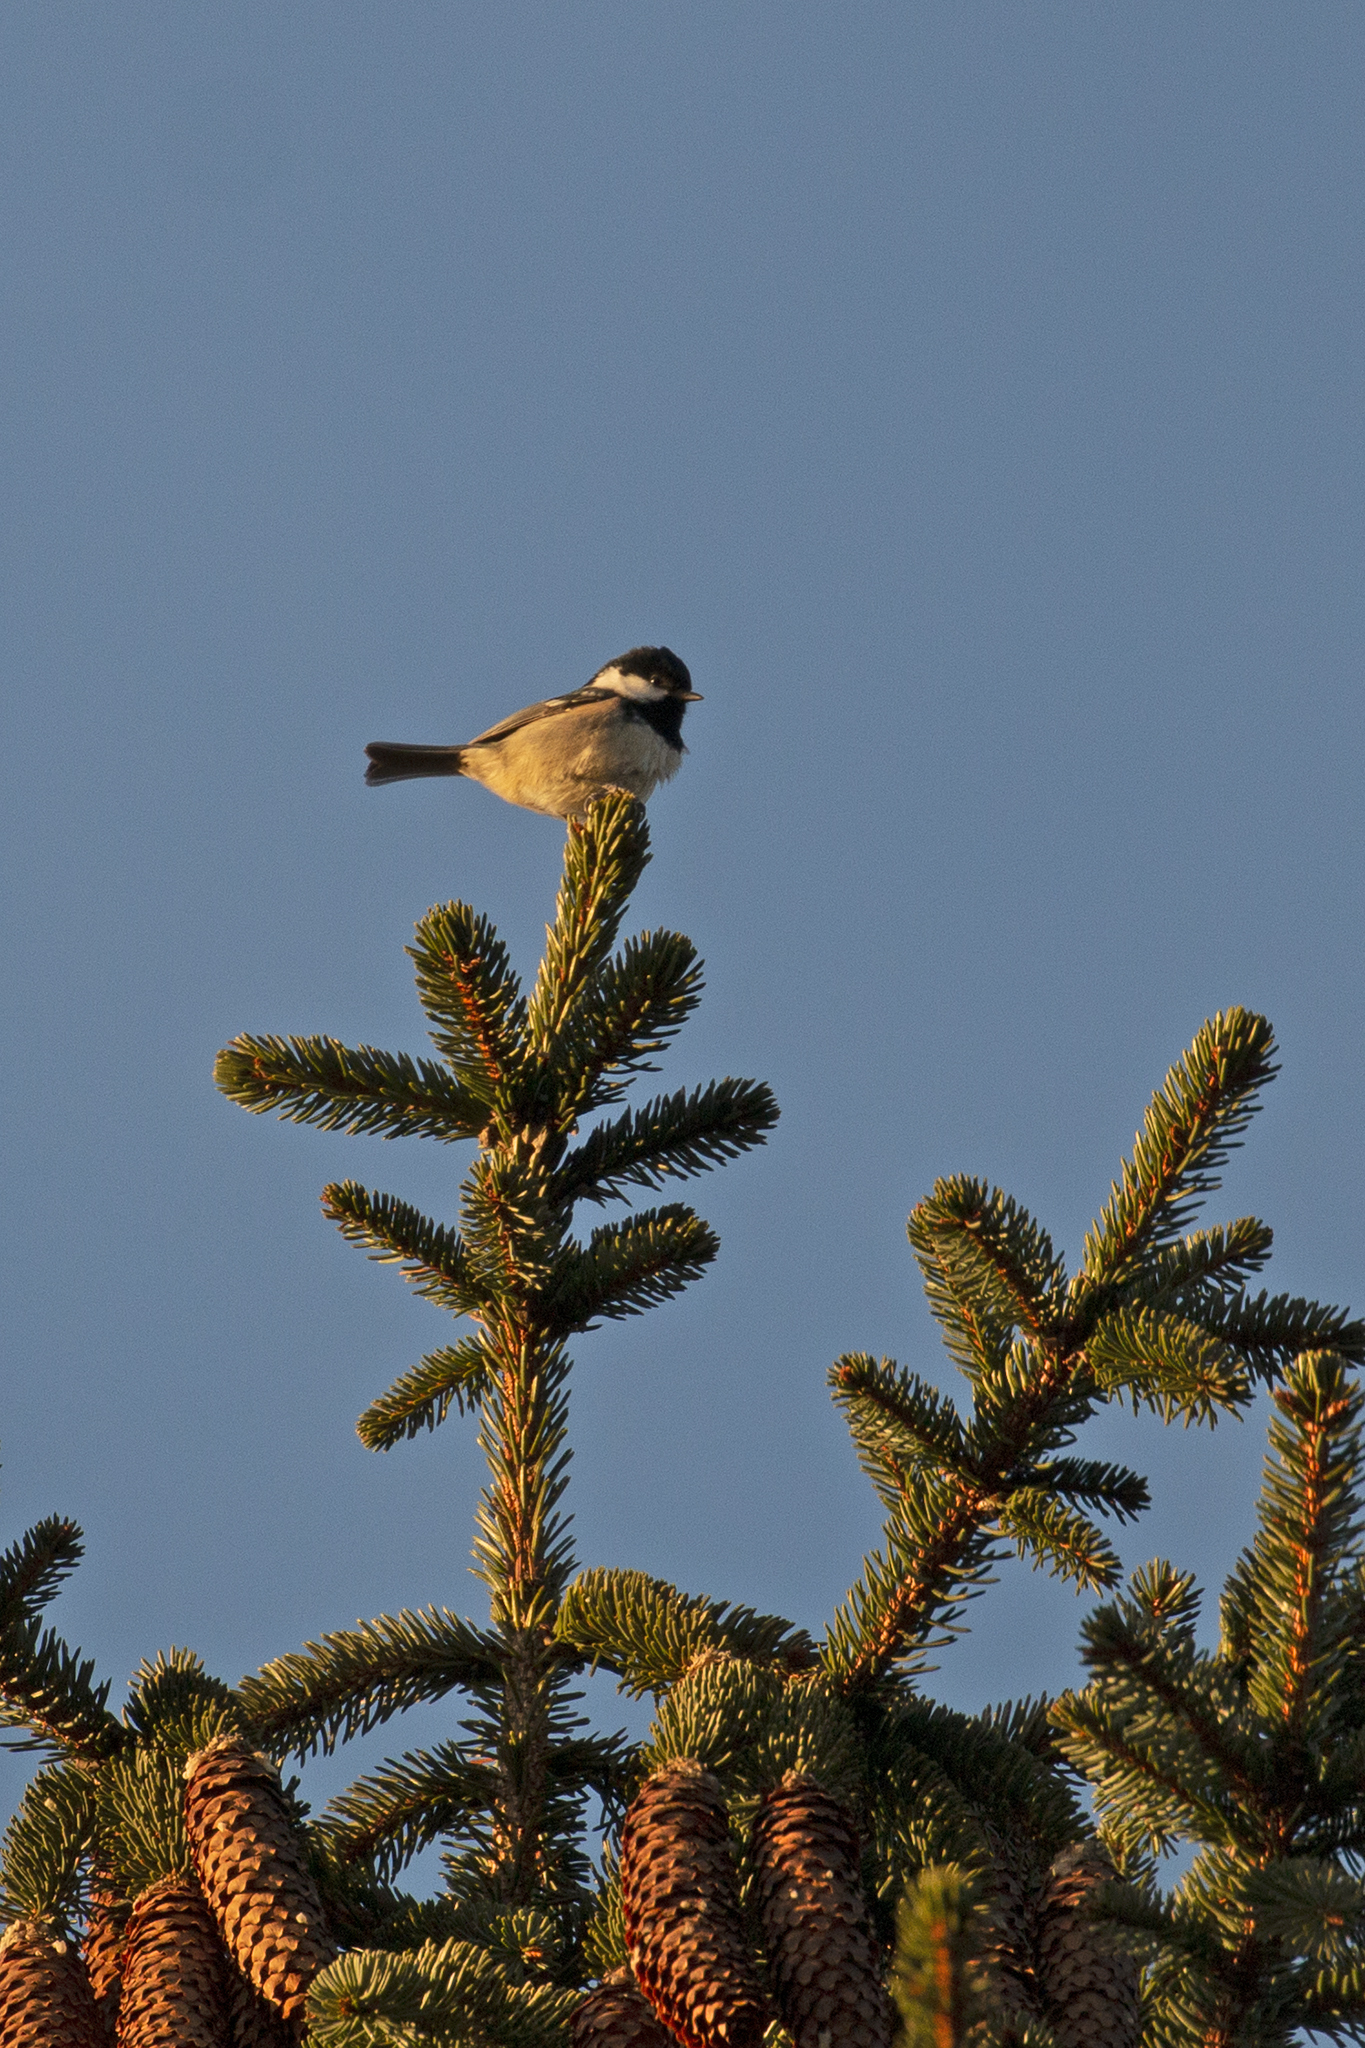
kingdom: Animalia
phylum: Chordata
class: Aves
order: Passeriformes
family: Paridae
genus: Periparus
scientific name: Periparus ater
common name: Coal tit
